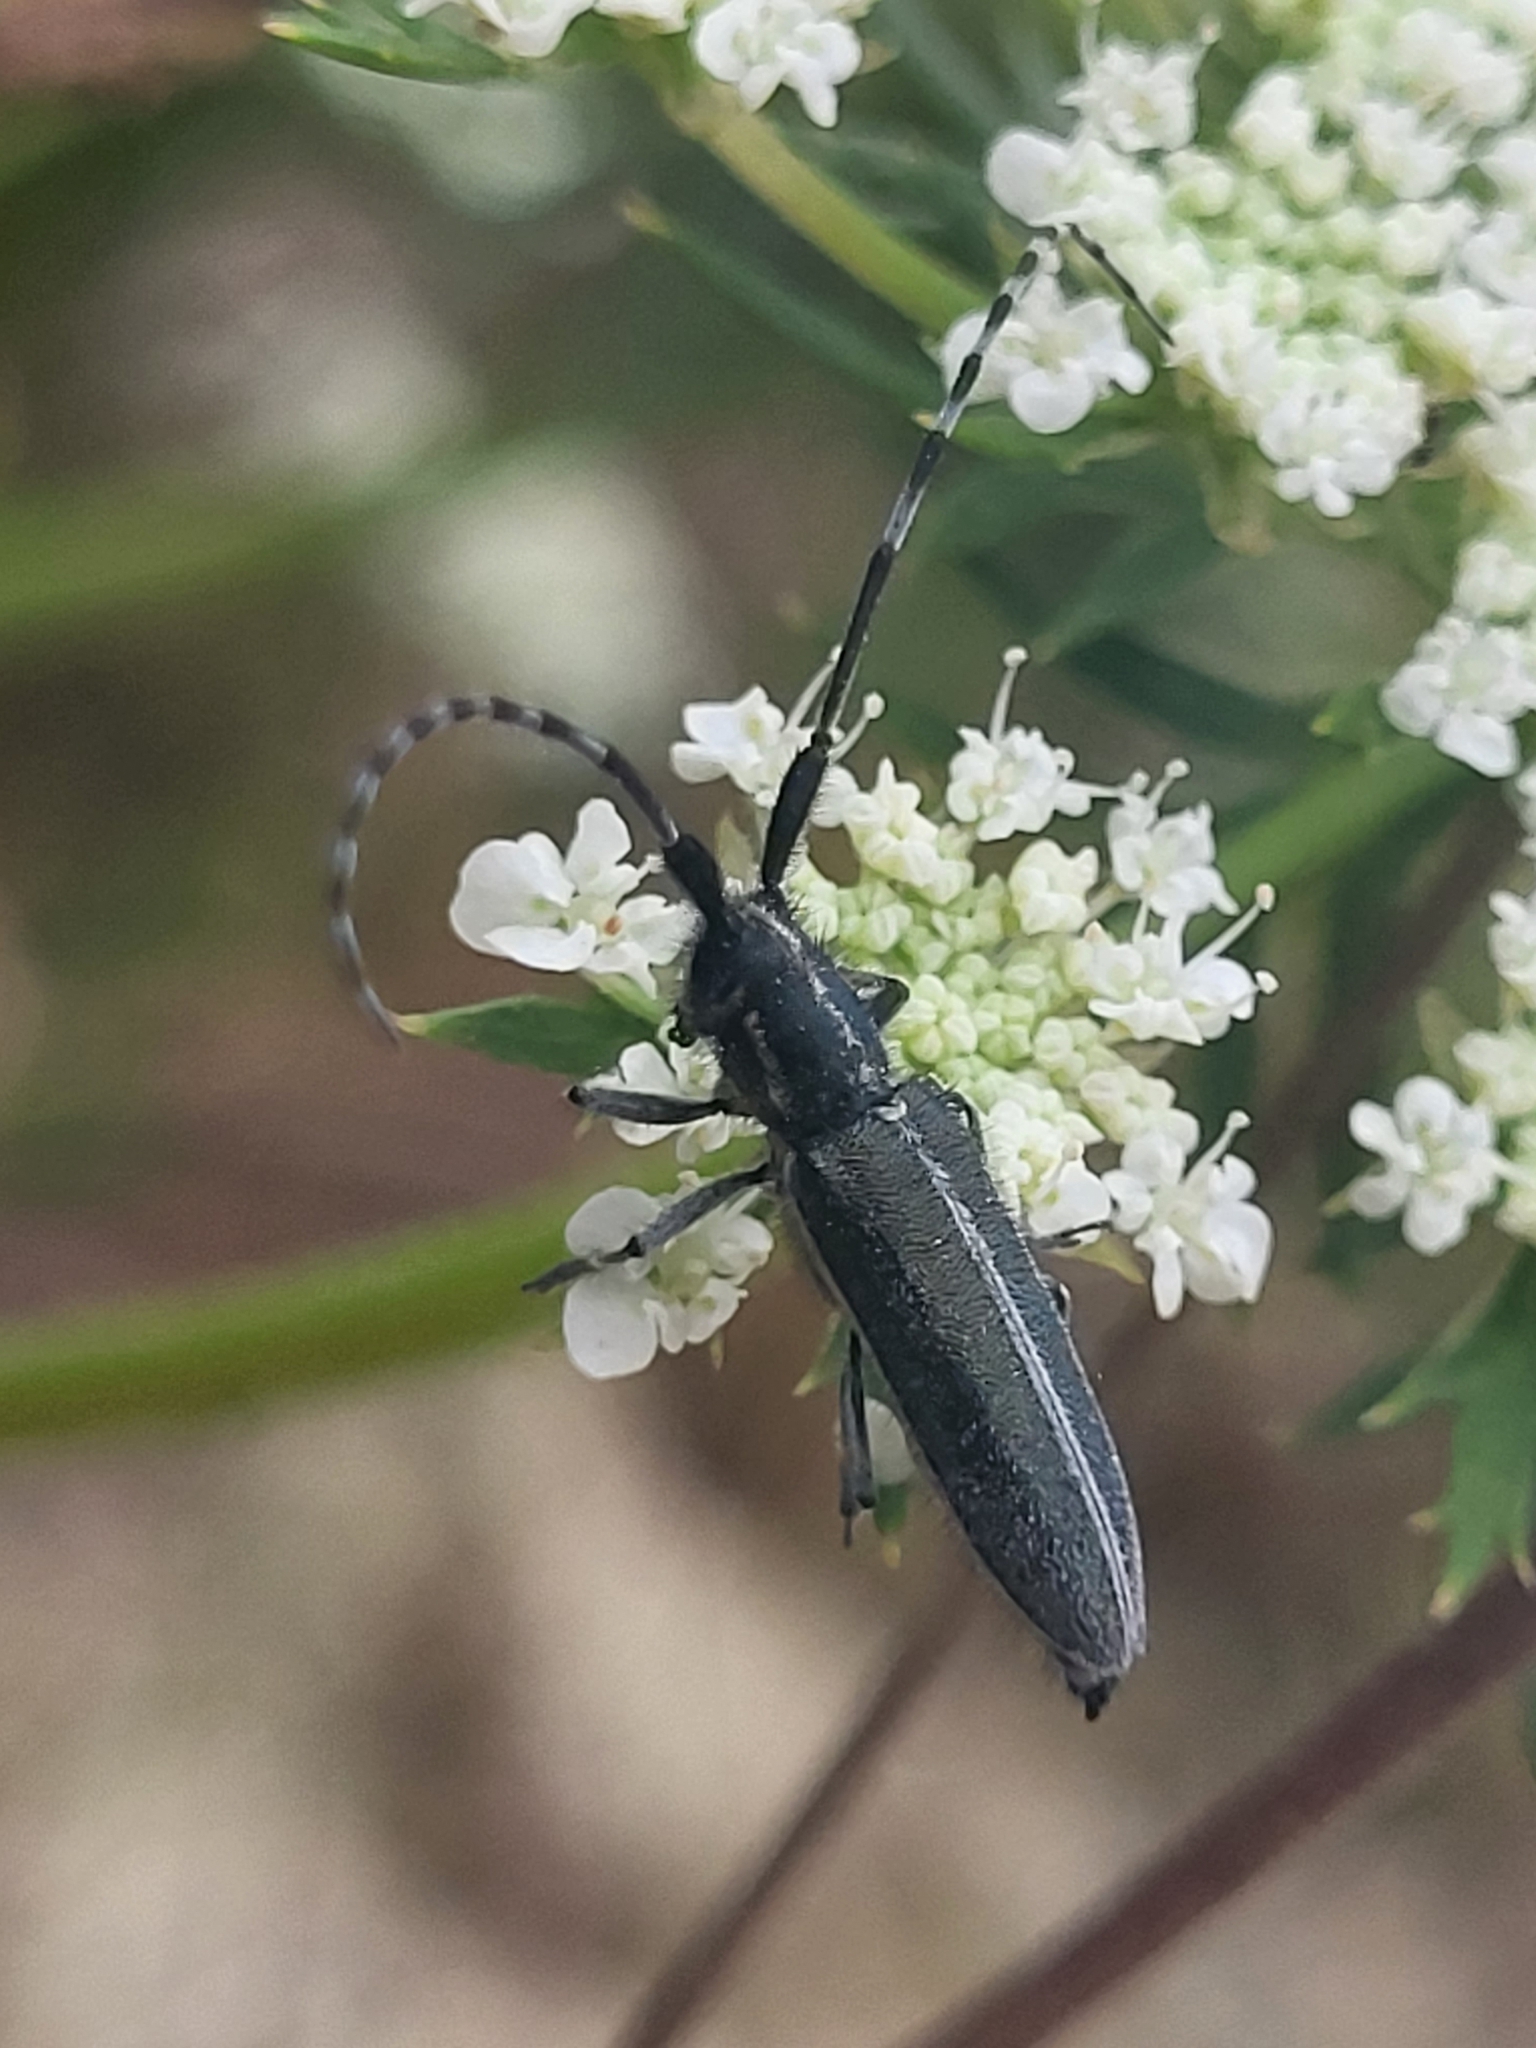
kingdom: Animalia
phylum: Arthropoda
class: Insecta
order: Coleoptera
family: Cerambycidae
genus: Agapanthia
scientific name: Agapanthia cardui
